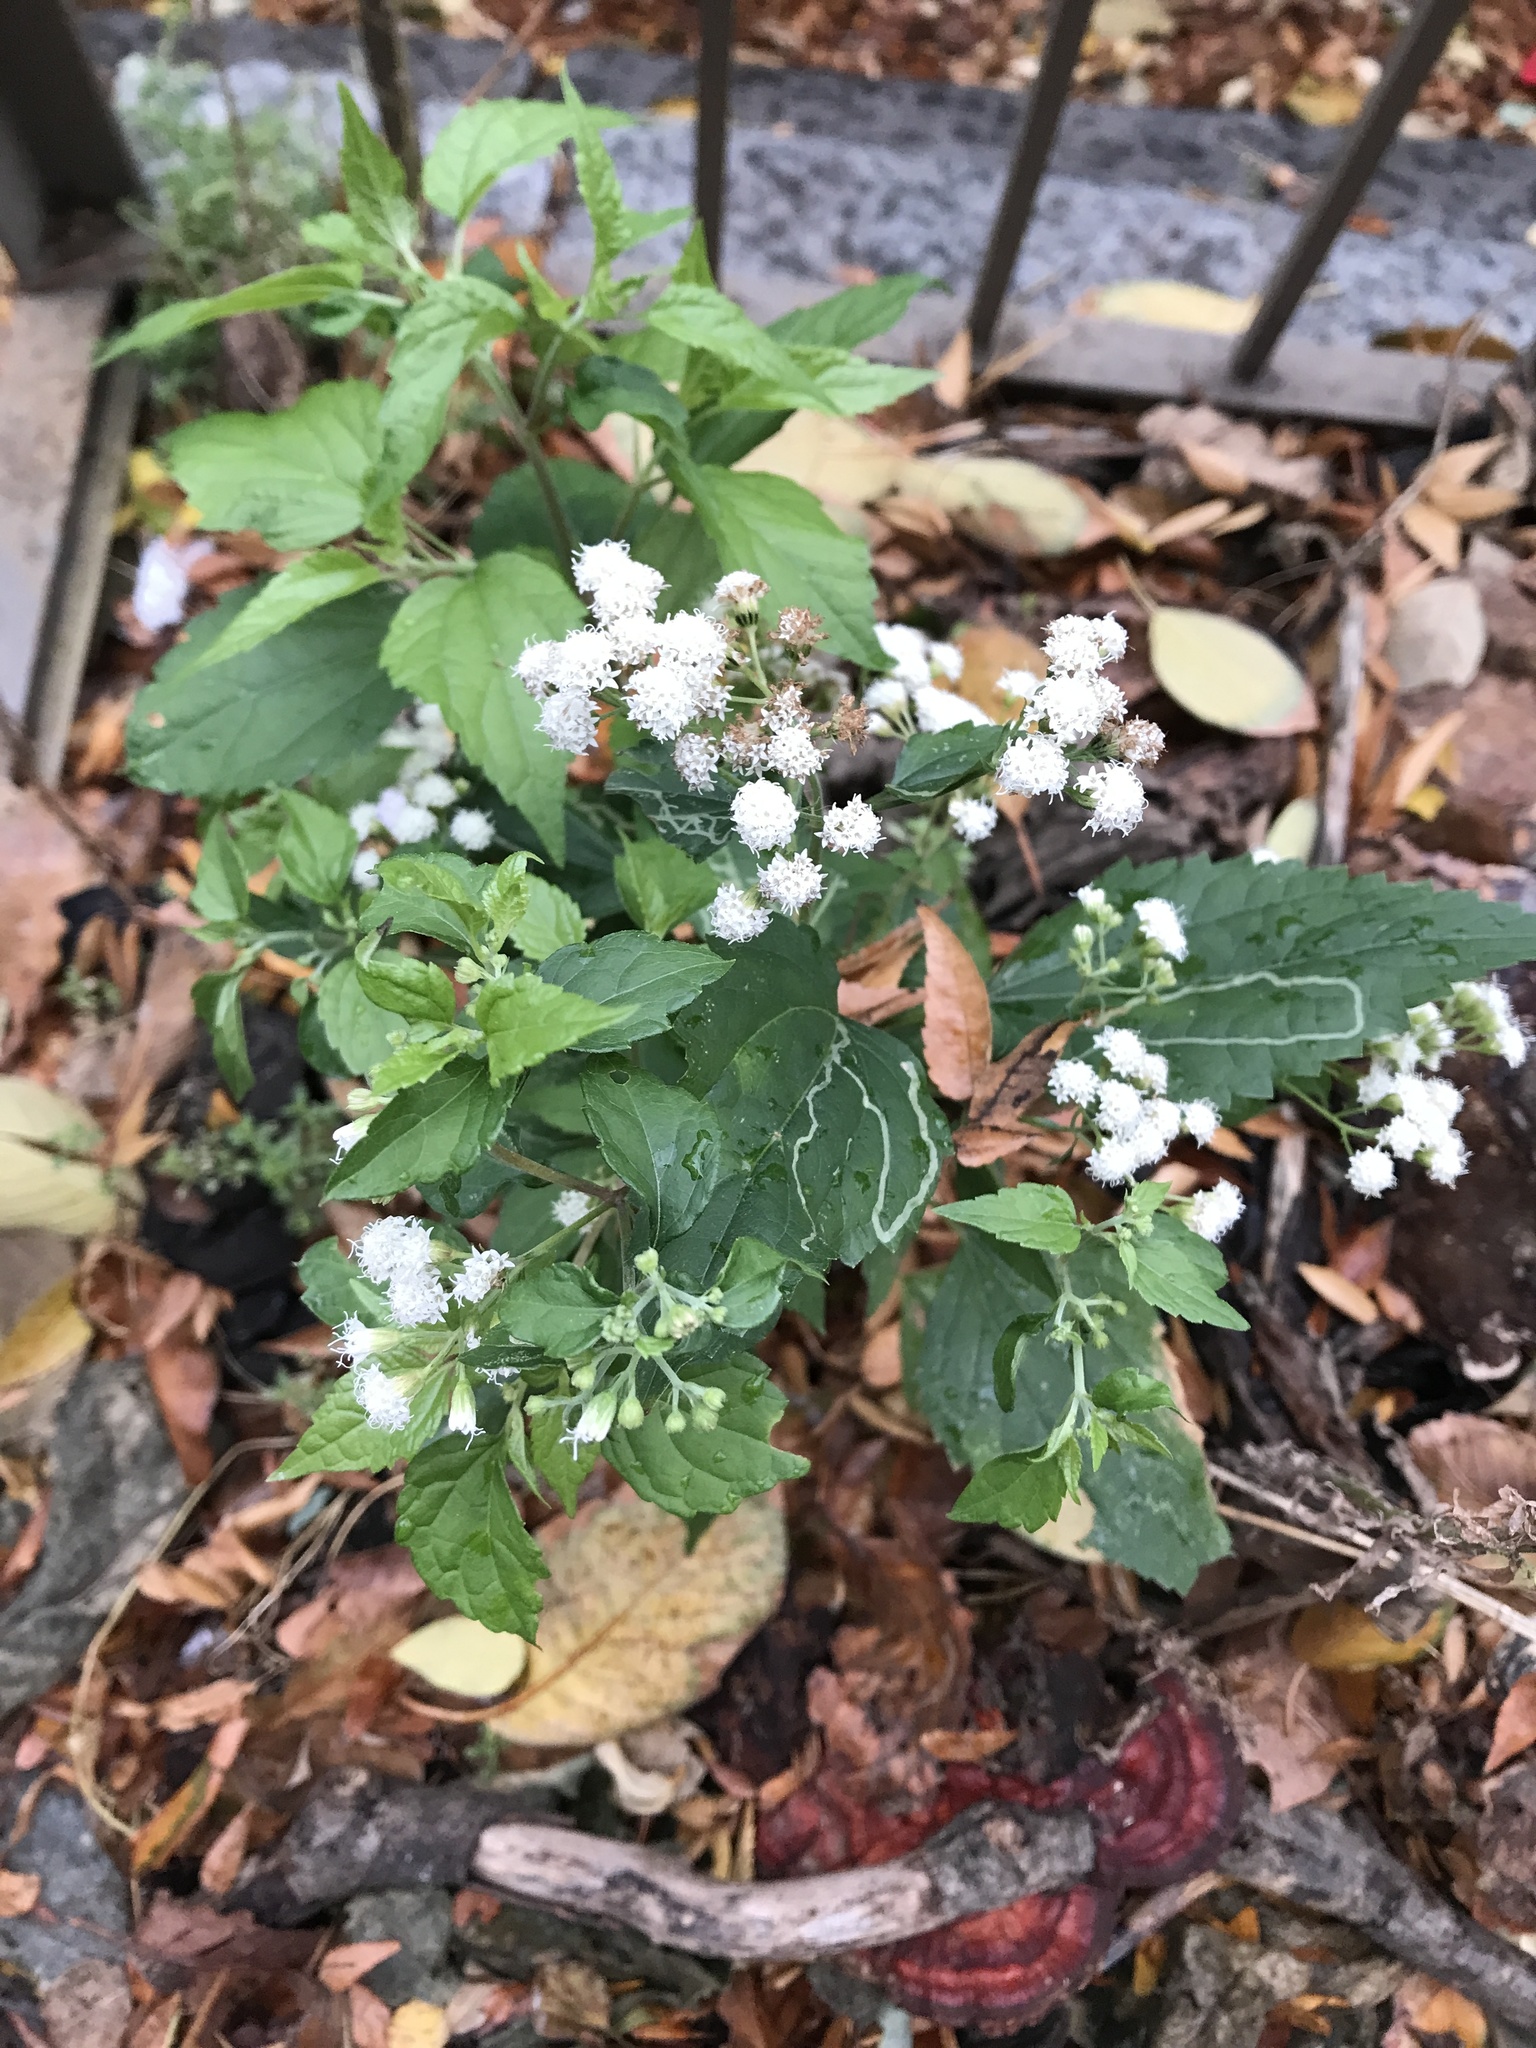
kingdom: Plantae
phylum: Tracheophyta
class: Magnoliopsida
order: Asterales
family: Asteraceae
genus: Ageratina
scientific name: Ageratina altissima
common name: White snakeroot
